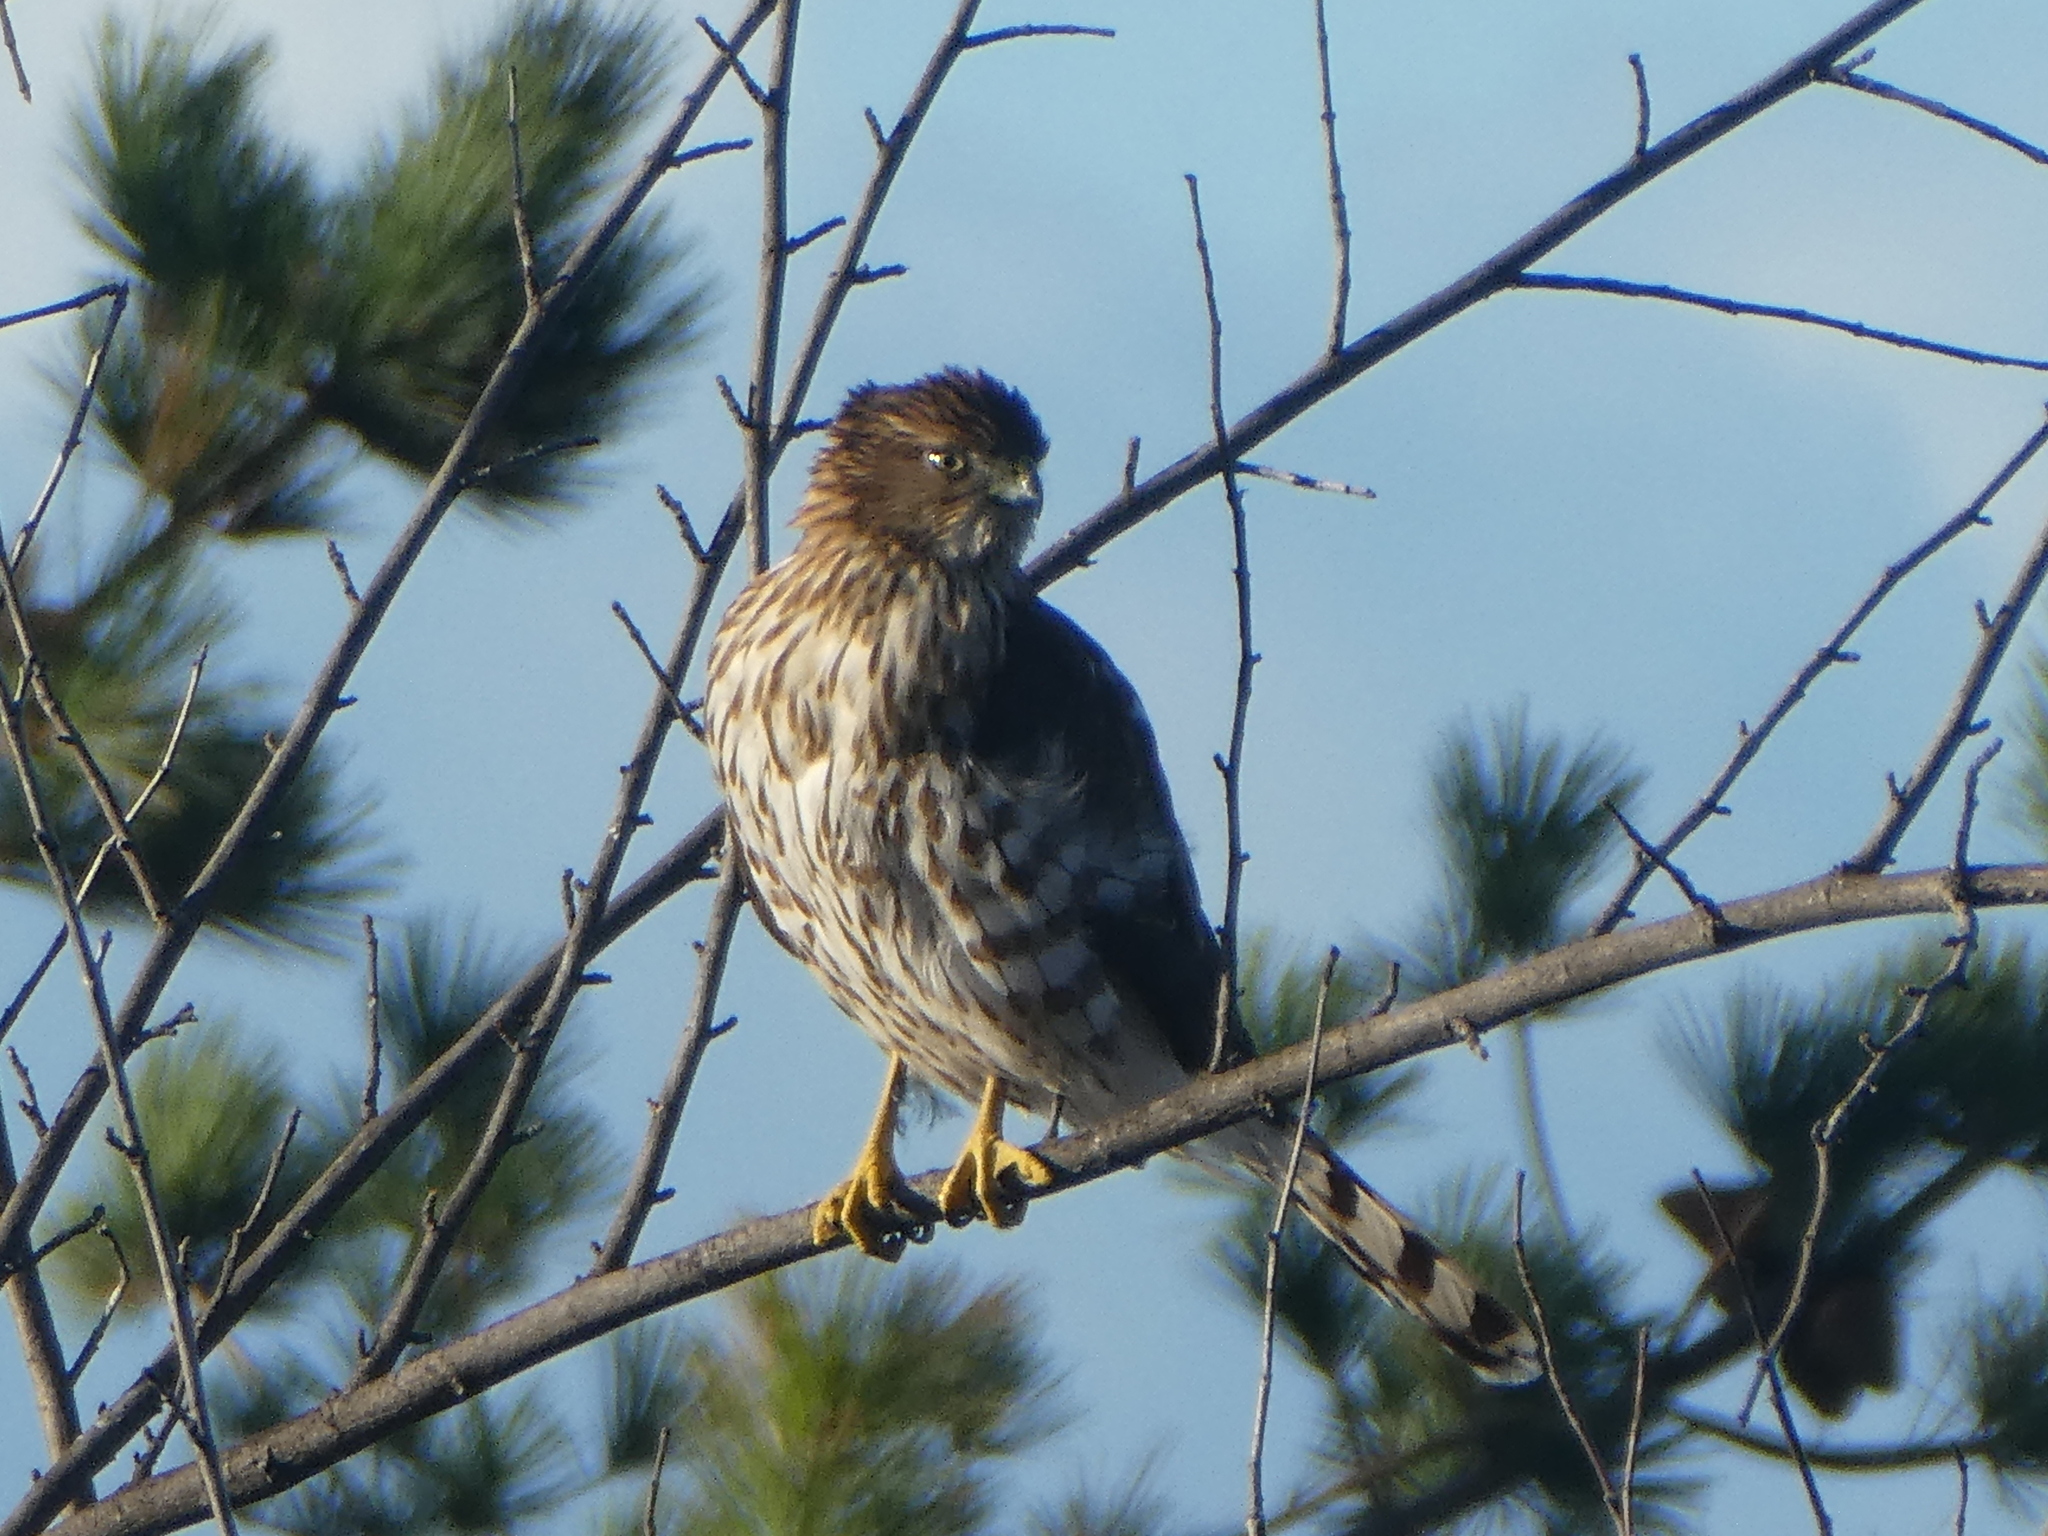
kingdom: Animalia
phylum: Chordata
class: Aves
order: Accipitriformes
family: Accipitridae
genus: Accipiter
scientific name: Accipiter cooperii
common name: Cooper's hawk
